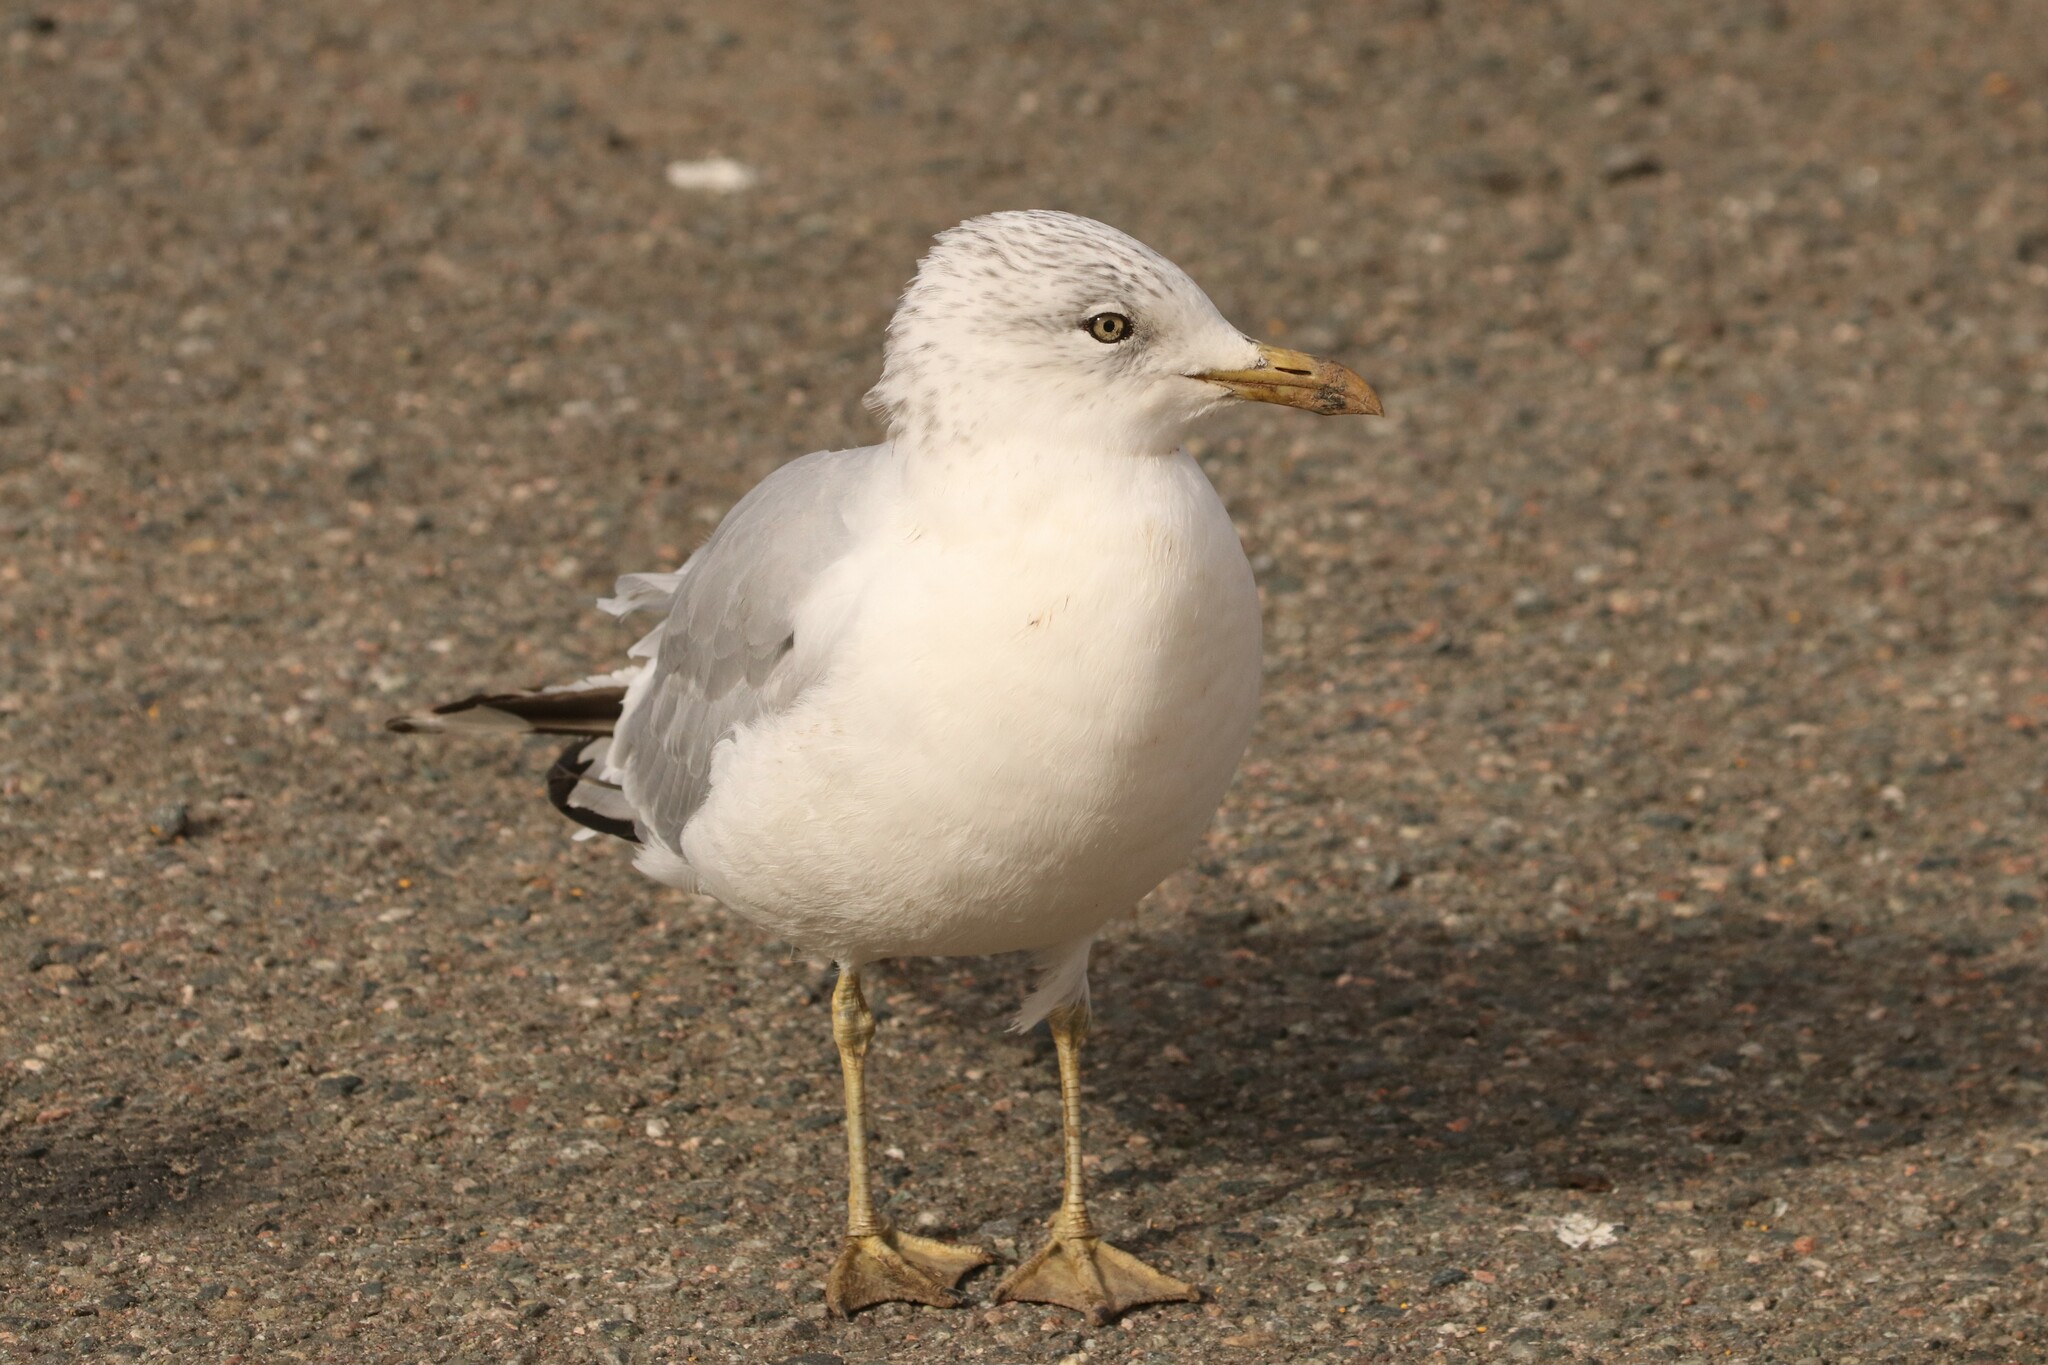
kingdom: Animalia
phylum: Chordata
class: Aves
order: Charadriiformes
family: Laridae
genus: Larus
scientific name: Larus delawarensis
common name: Ring-billed gull
